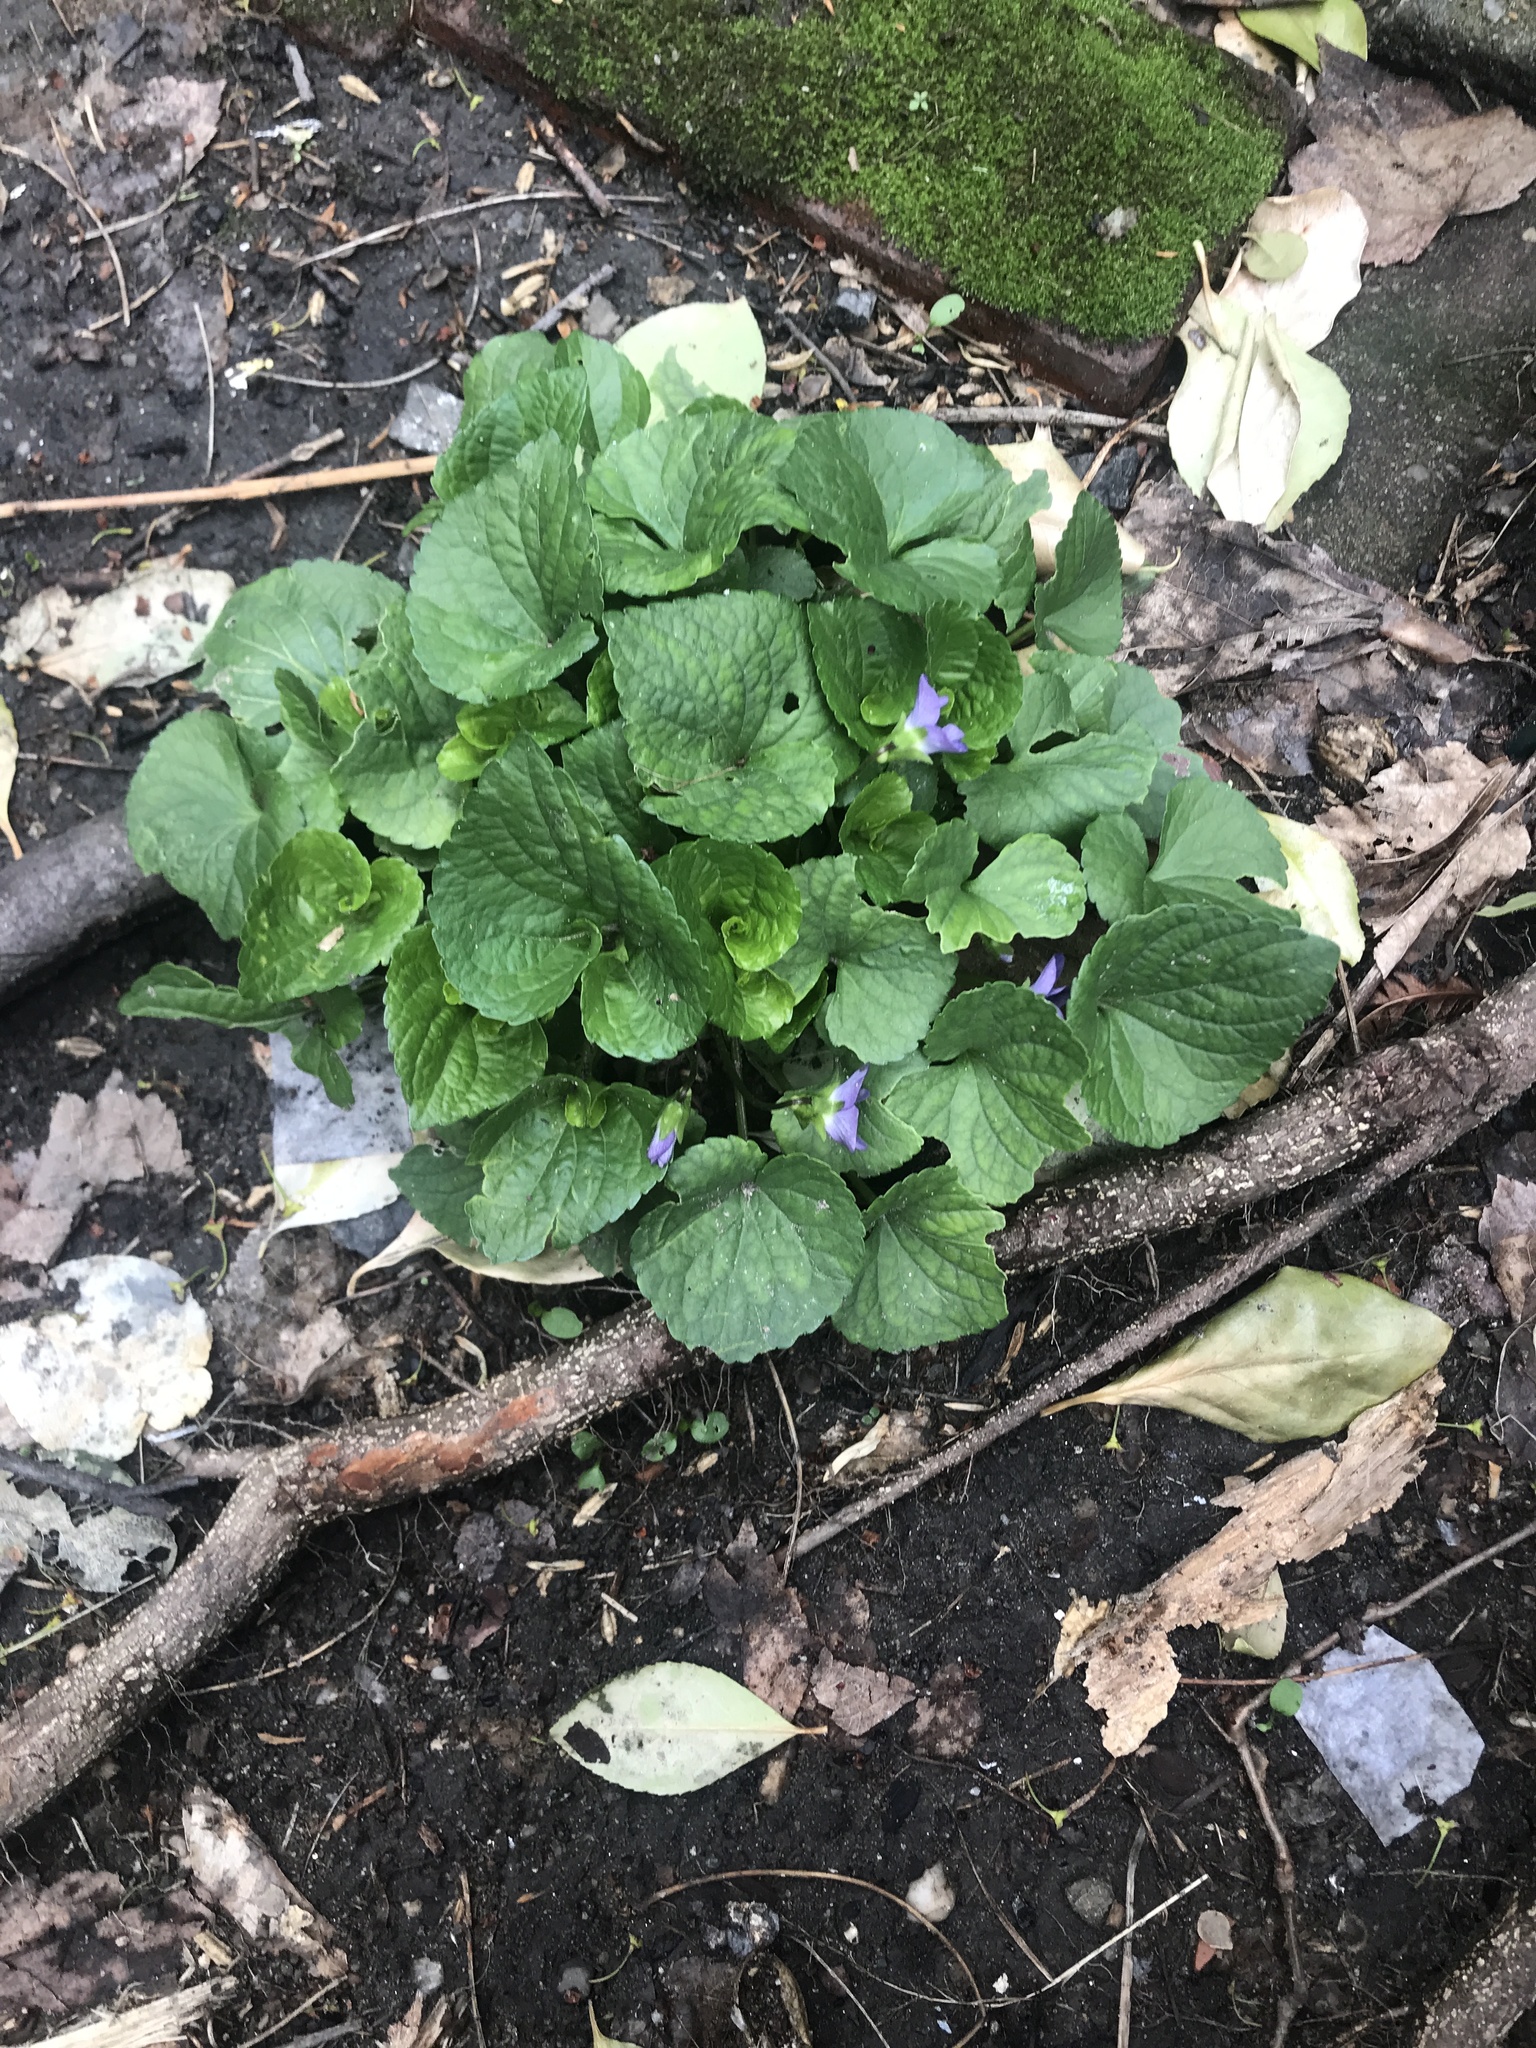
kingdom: Plantae
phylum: Tracheophyta
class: Magnoliopsida
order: Malpighiales
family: Violaceae
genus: Viola
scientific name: Viola sororia
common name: Dooryard violet
